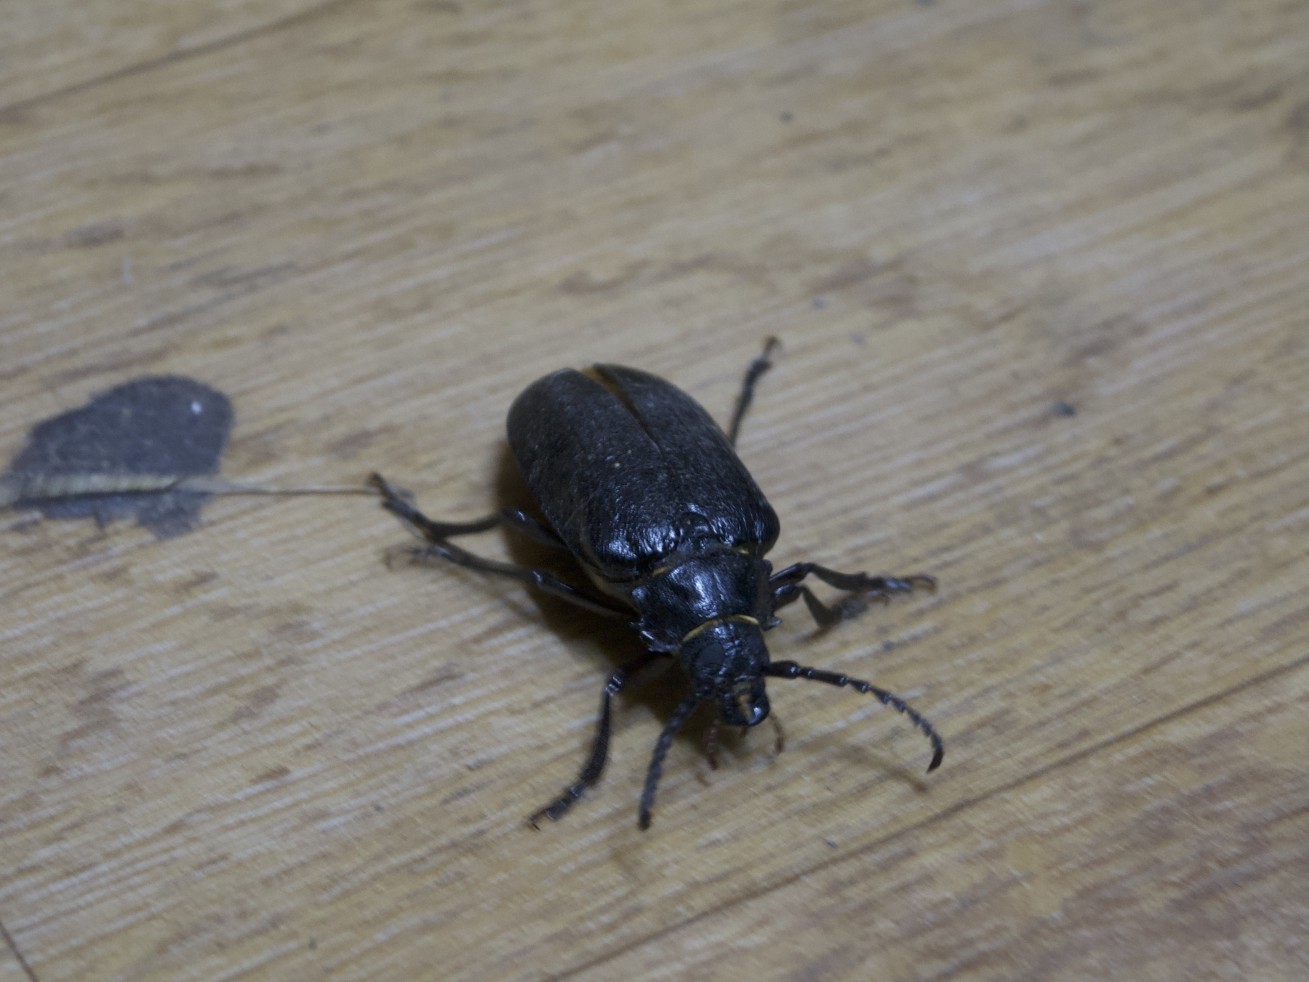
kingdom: Animalia
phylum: Arthropoda
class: Insecta
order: Coleoptera
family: Cerambycidae
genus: Prionus
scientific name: Prionus coriarius
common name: Tanner beetle
